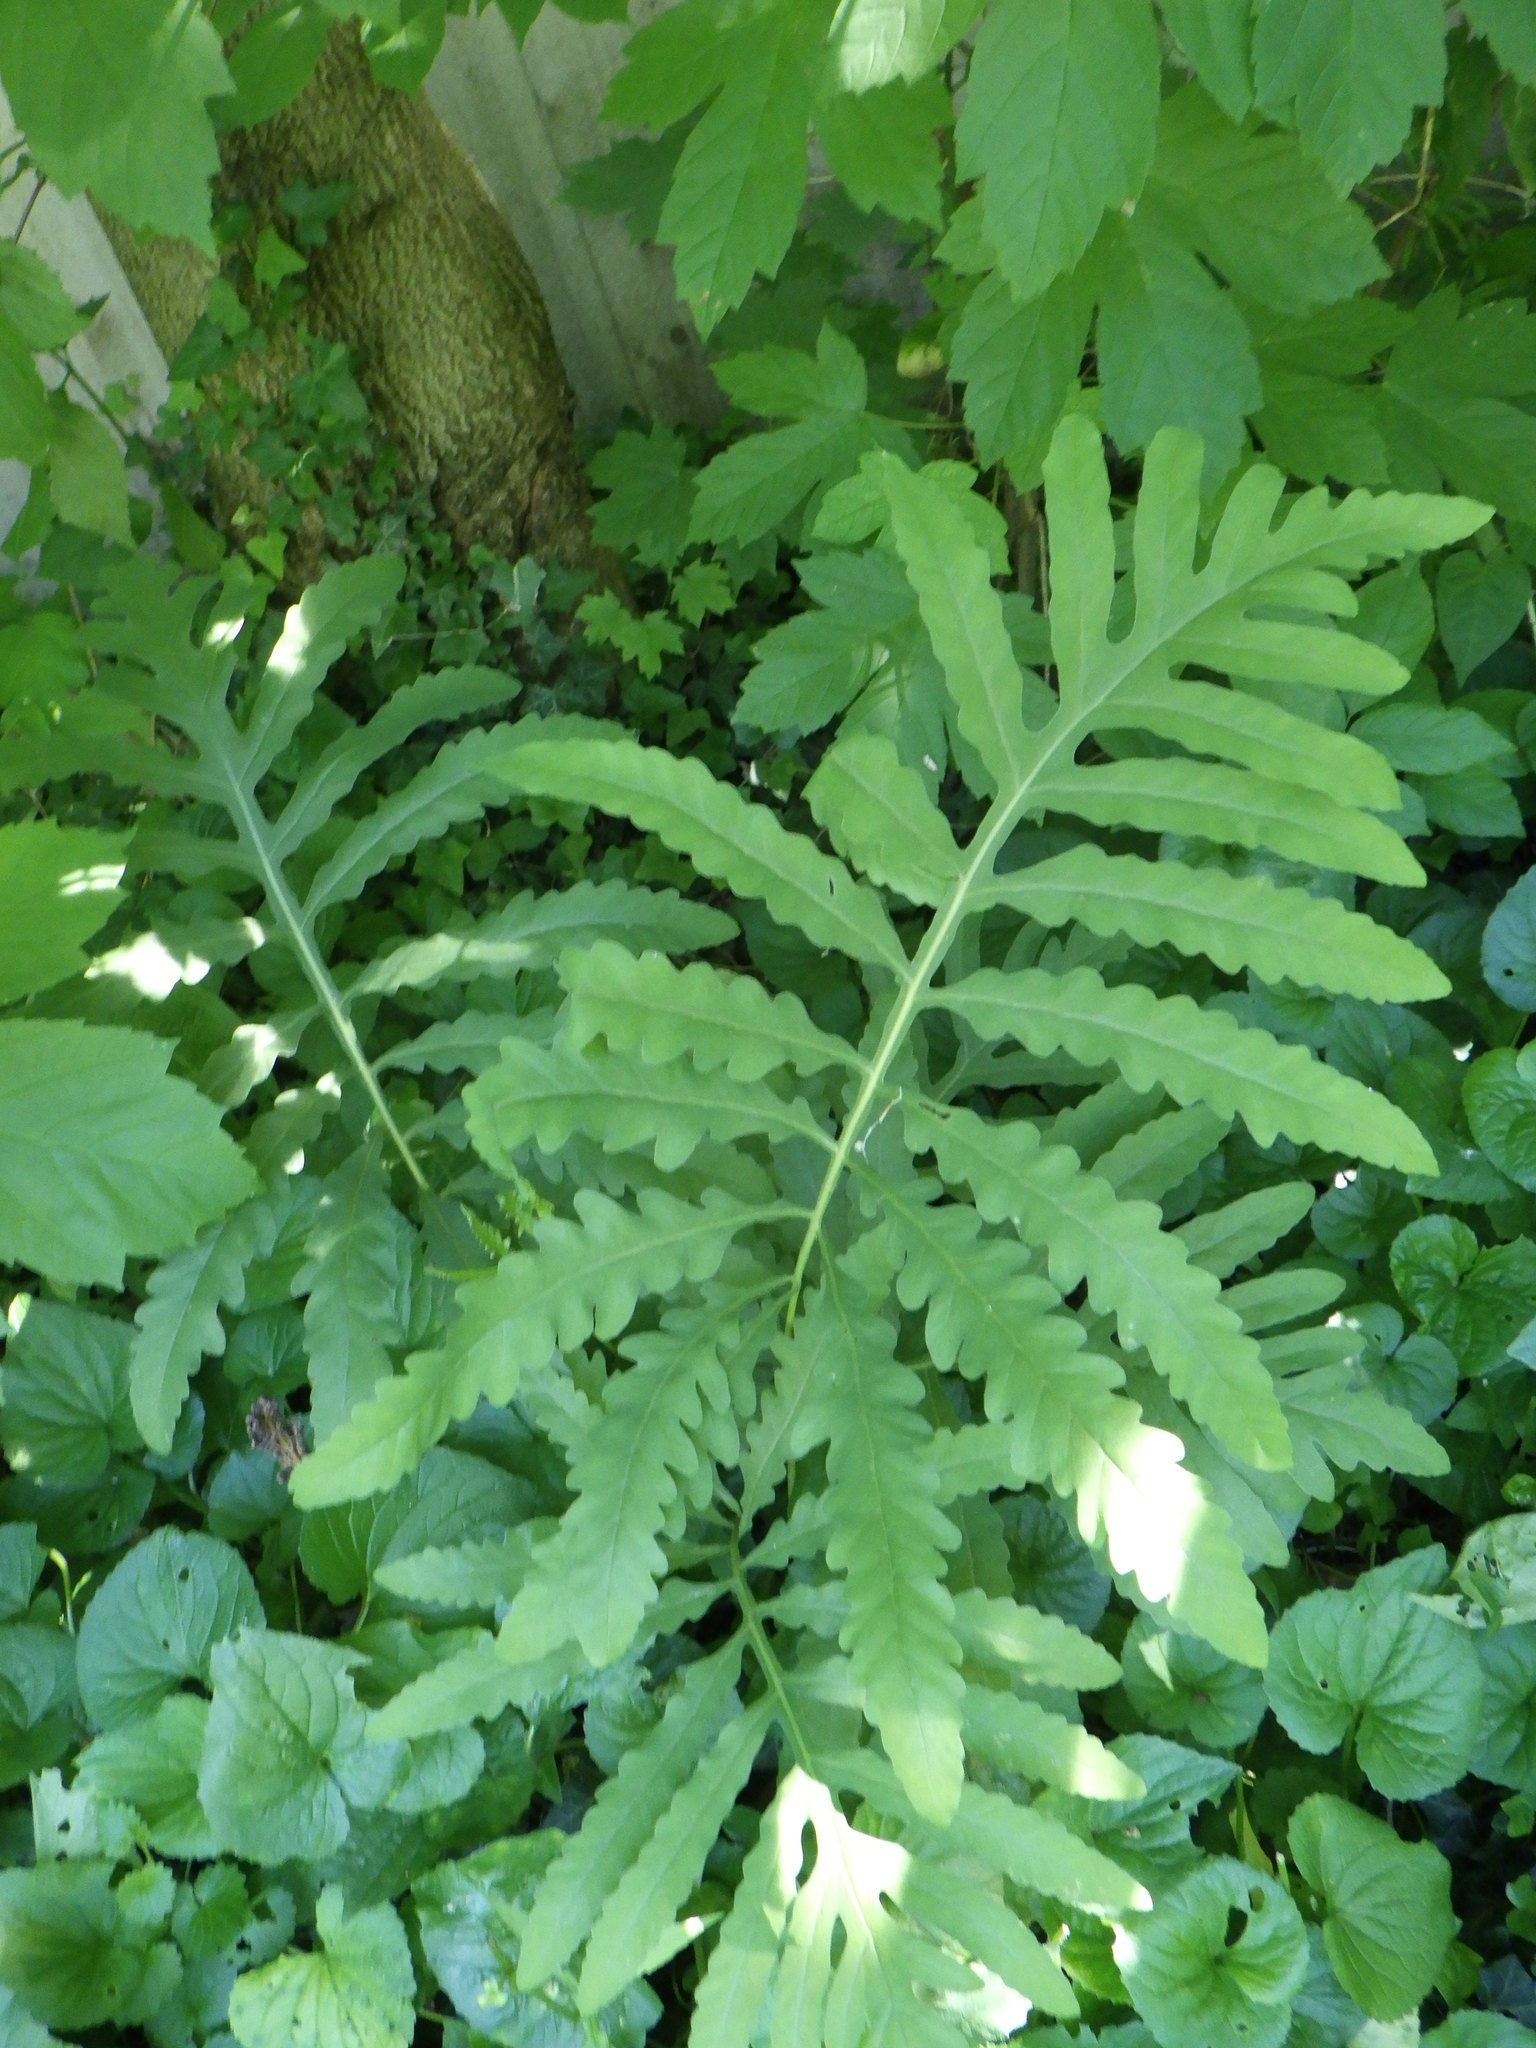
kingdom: Plantae
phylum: Tracheophyta
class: Polypodiopsida
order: Polypodiales
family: Onocleaceae
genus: Onoclea
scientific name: Onoclea sensibilis
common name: Sensitive fern
